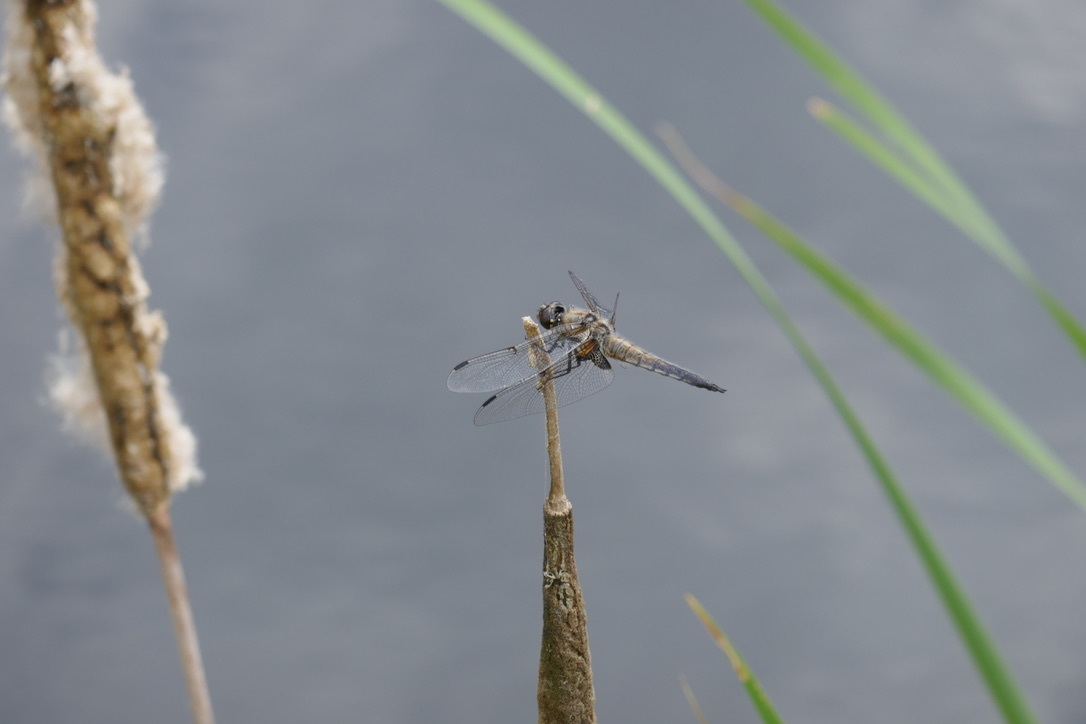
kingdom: Animalia
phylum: Arthropoda
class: Insecta
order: Odonata
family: Libellulidae
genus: Libellula
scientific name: Libellula quadrimaculata
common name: Four-spotted chaser
